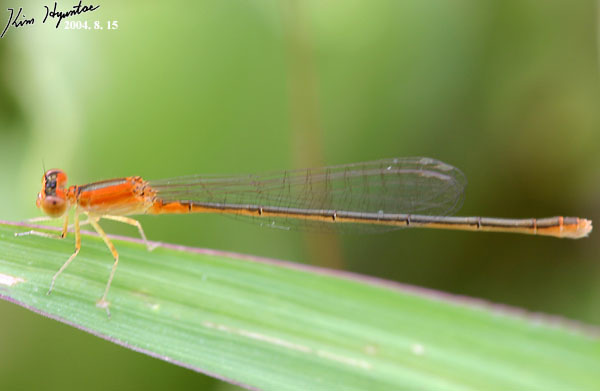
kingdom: Animalia
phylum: Arthropoda
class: Insecta
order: Odonata
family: Coenagrionidae
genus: Ischnura
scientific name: Ischnura asiatica
